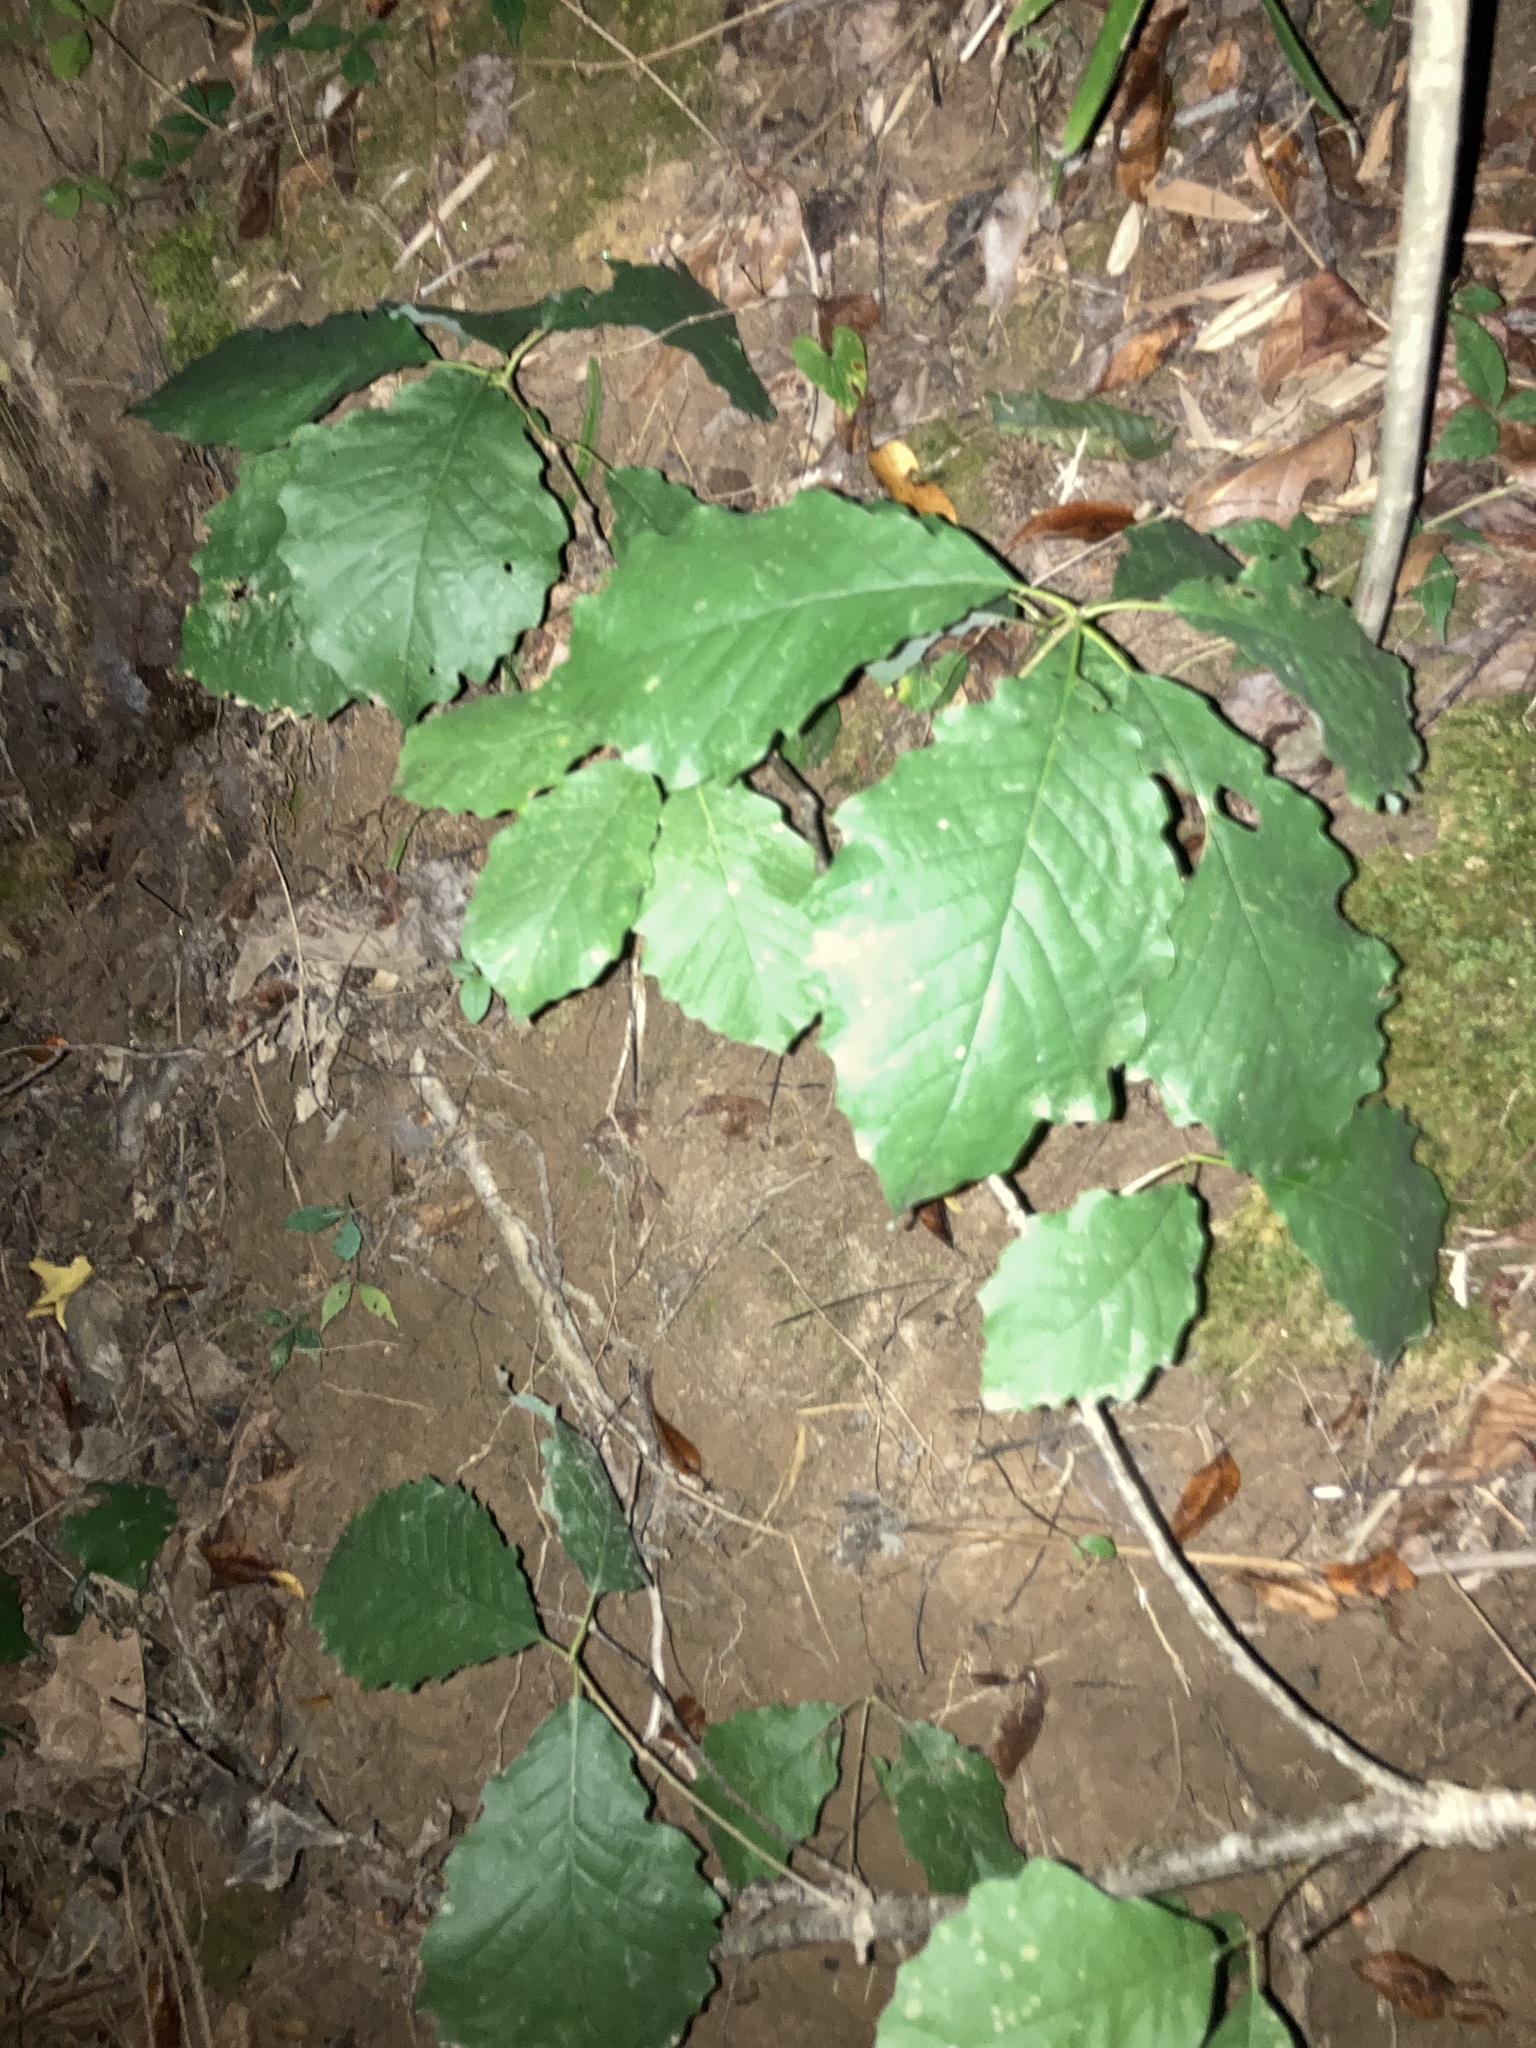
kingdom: Plantae
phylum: Tracheophyta
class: Magnoliopsida
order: Fagales
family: Fagaceae
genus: Quercus
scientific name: Quercus muehlenbergii
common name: Chinkapin oak
